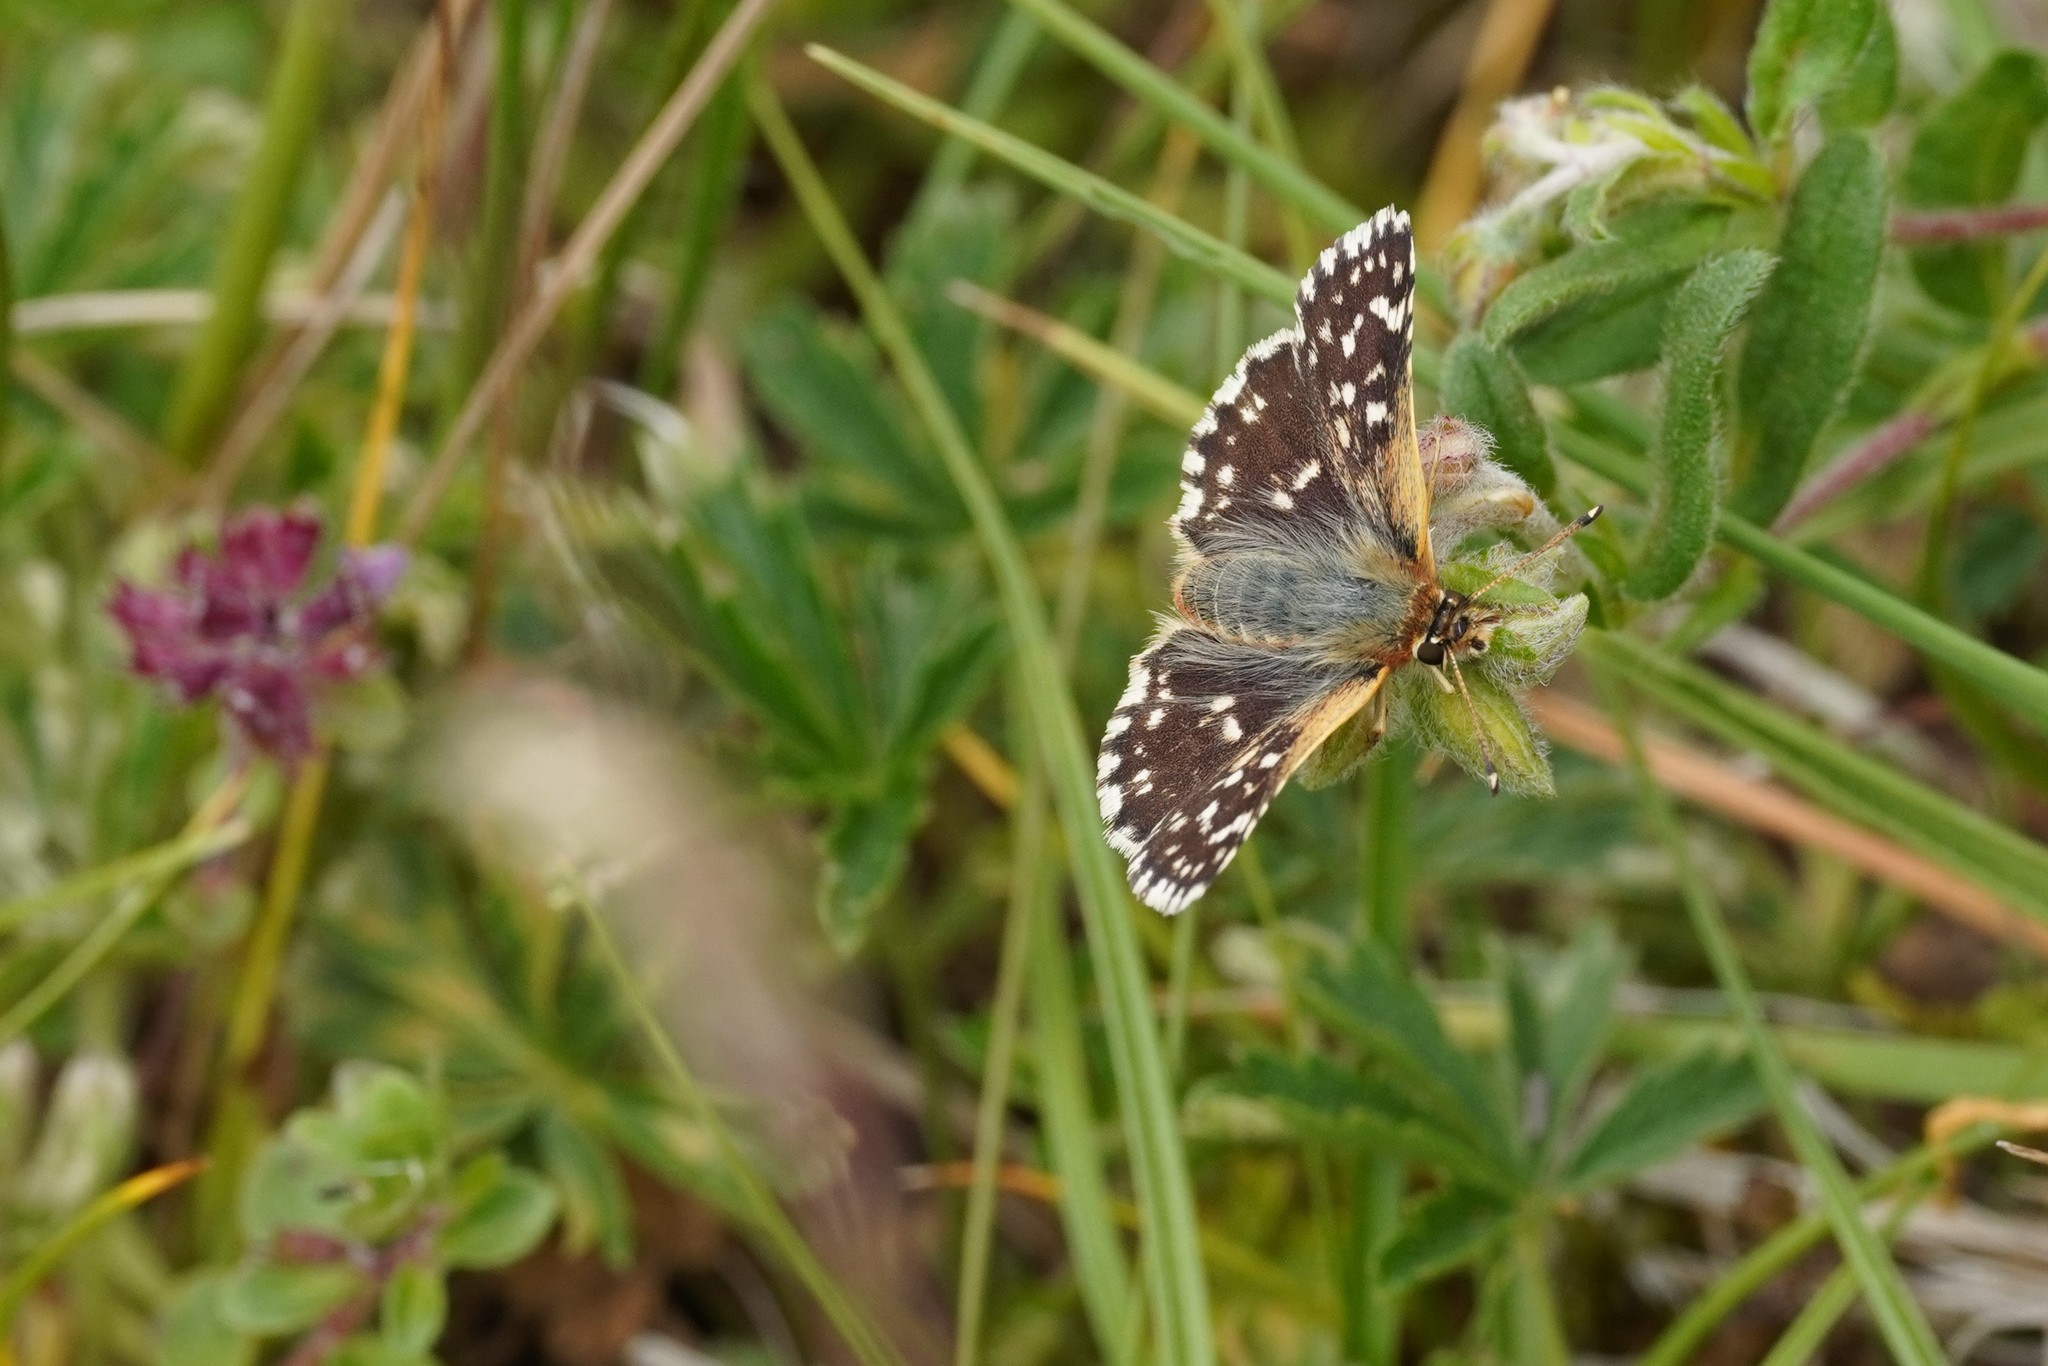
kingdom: Animalia
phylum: Arthropoda
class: Insecta
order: Lepidoptera
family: Hesperiidae
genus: Spialia
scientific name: Spialia sertorius
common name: Red underwing skipper
